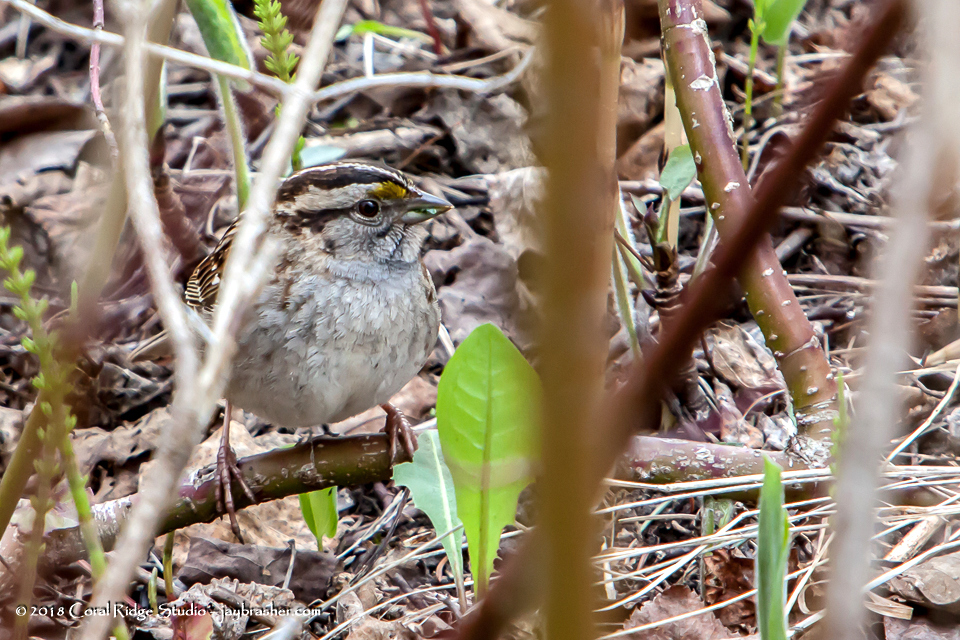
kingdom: Animalia
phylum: Chordata
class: Aves
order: Passeriformes
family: Passerellidae
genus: Zonotrichia
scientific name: Zonotrichia albicollis
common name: White-throated sparrow
